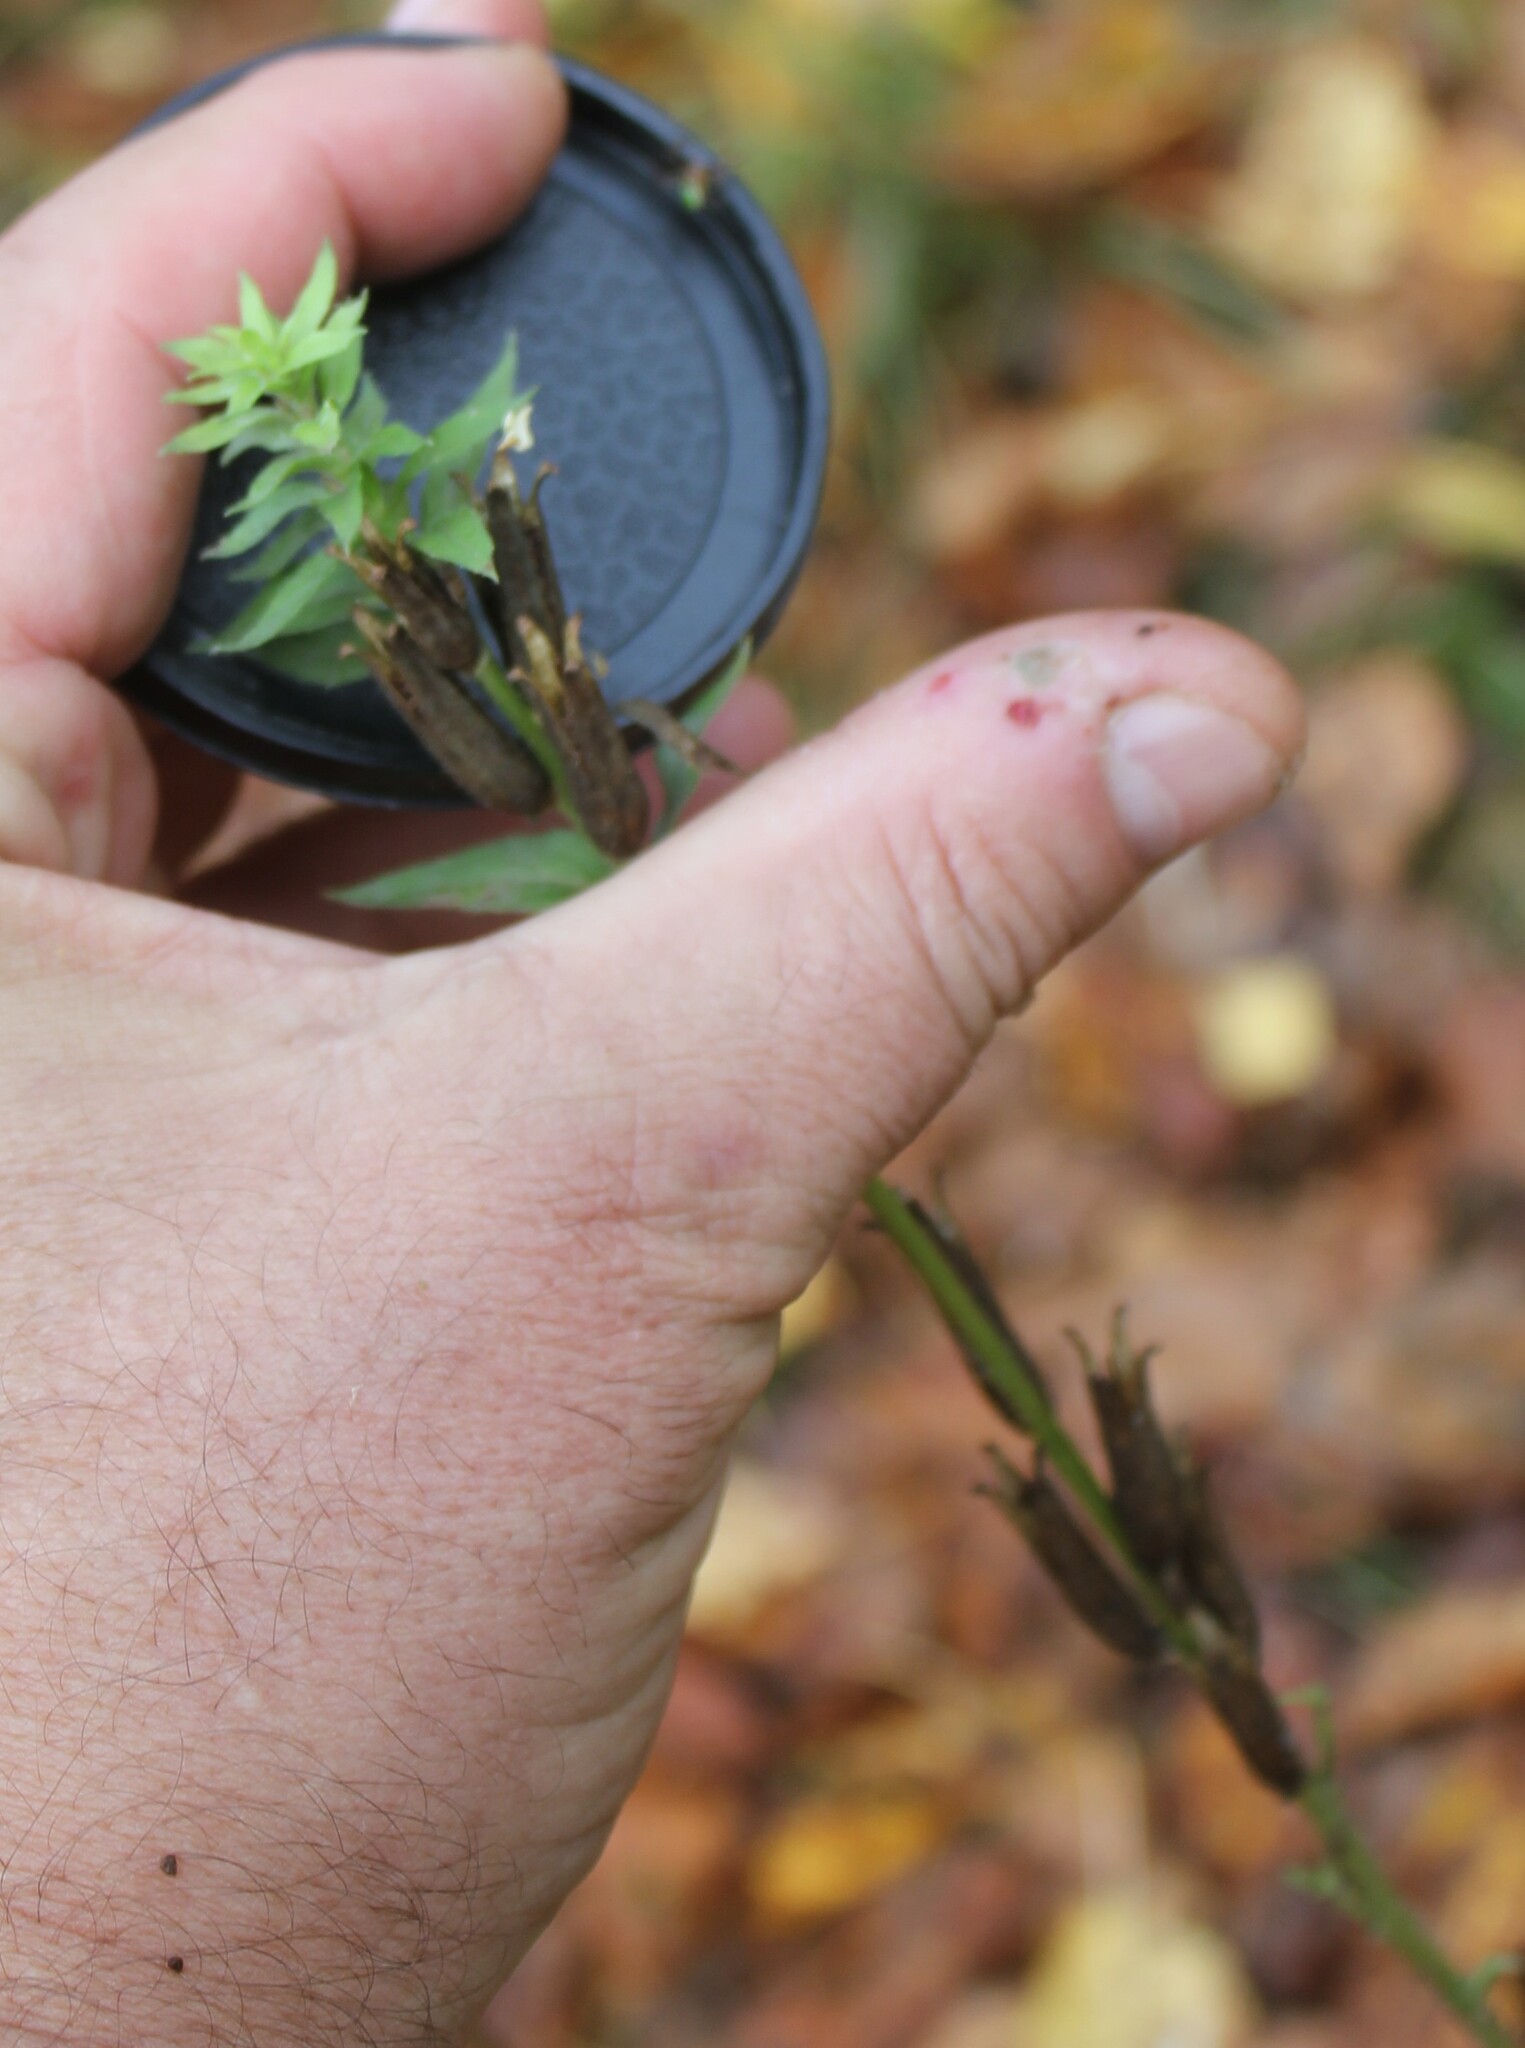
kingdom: Plantae
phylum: Tracheophyta
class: Magnoliopsida
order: Myrtales
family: Onagraceae
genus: Oenothera
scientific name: Oenothera
